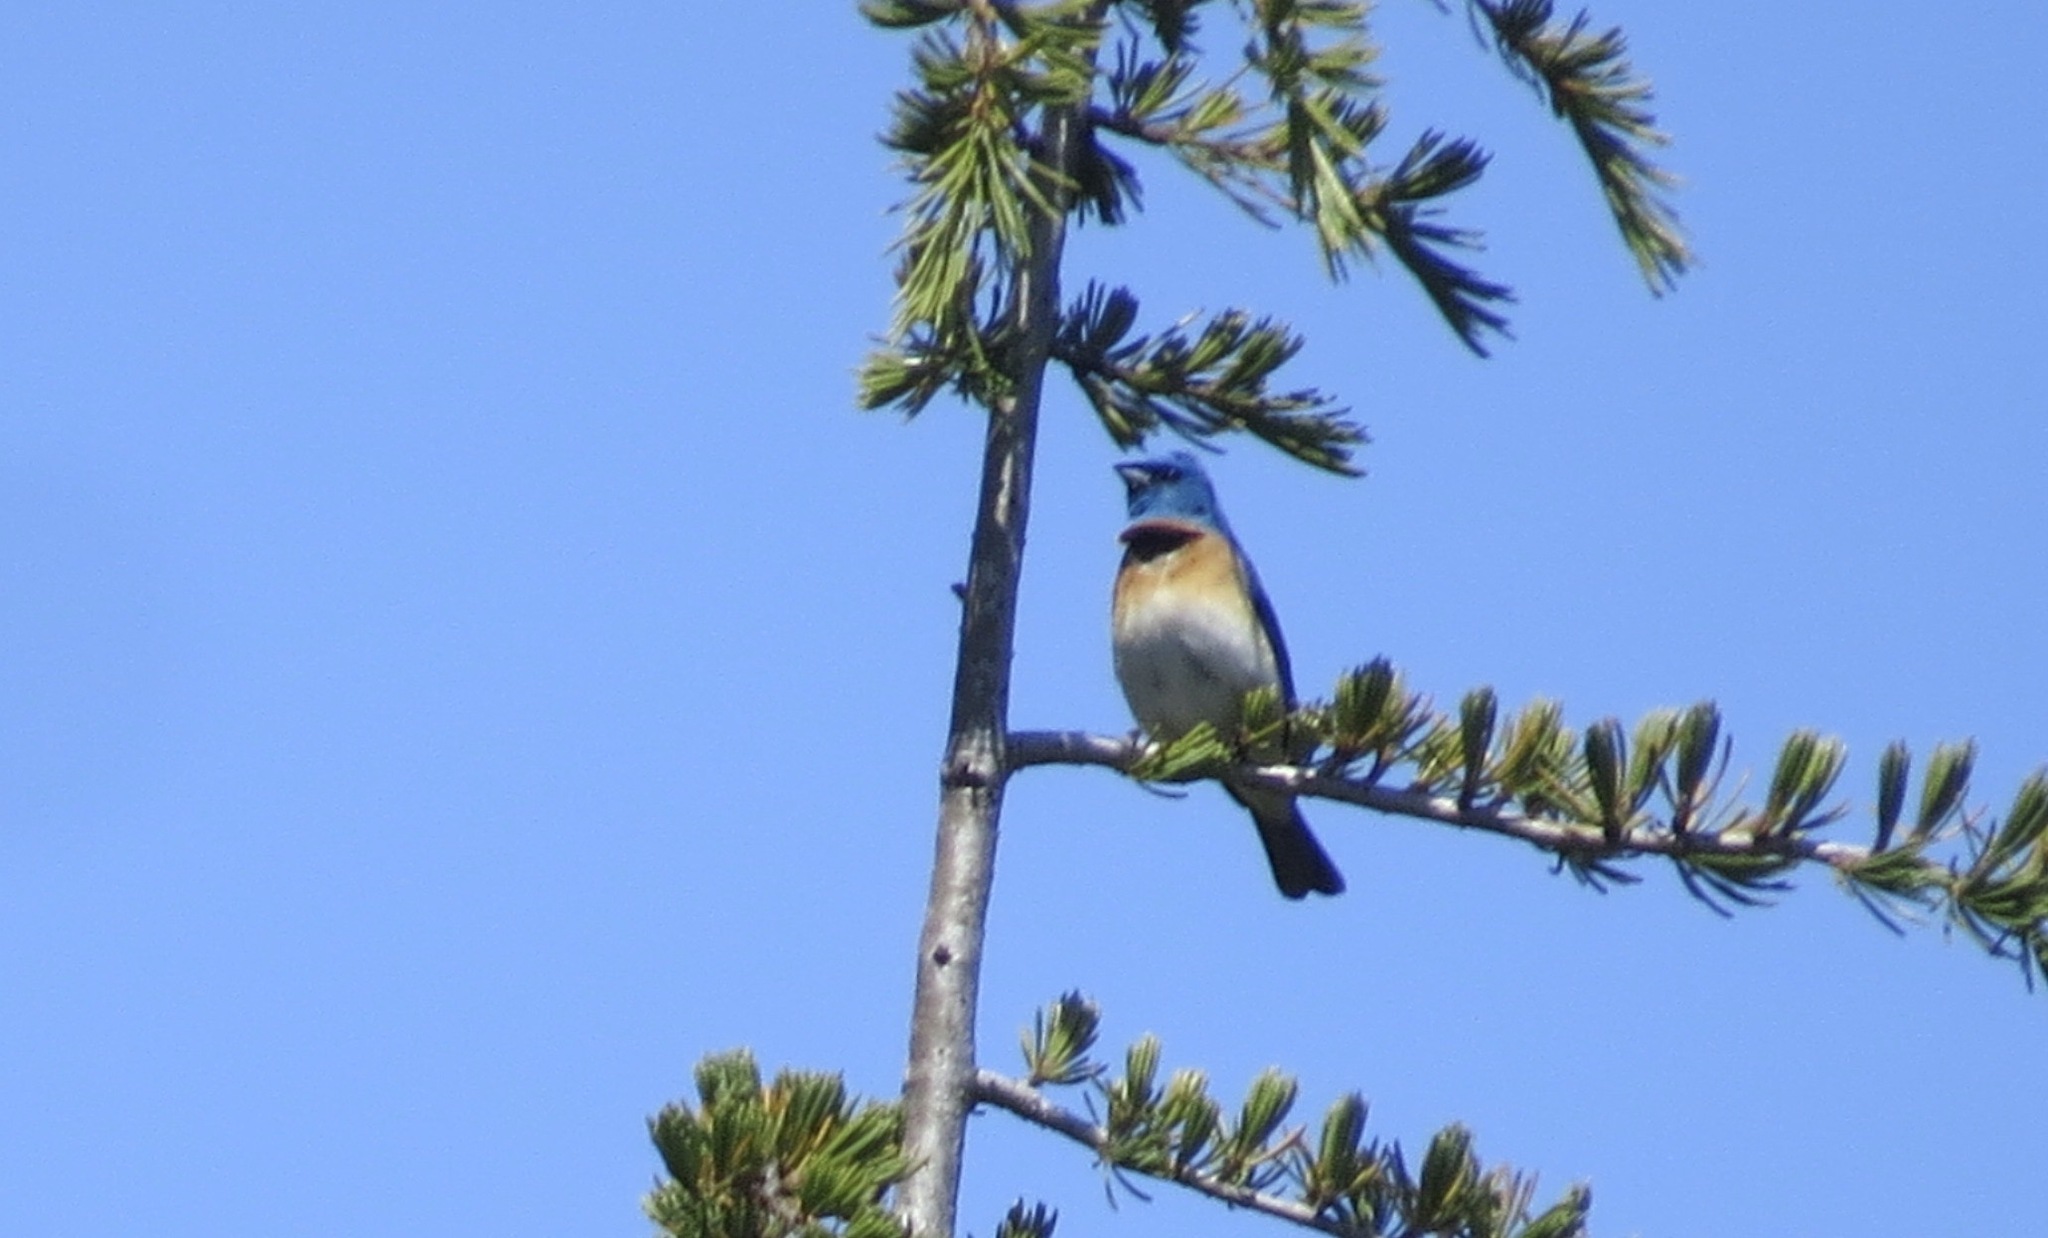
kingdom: Animalia
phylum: Chordata
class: Aves
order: Passeriformes
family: Cardinalidae
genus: Passerina
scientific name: Passerina amoena
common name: Lazuli bunting
